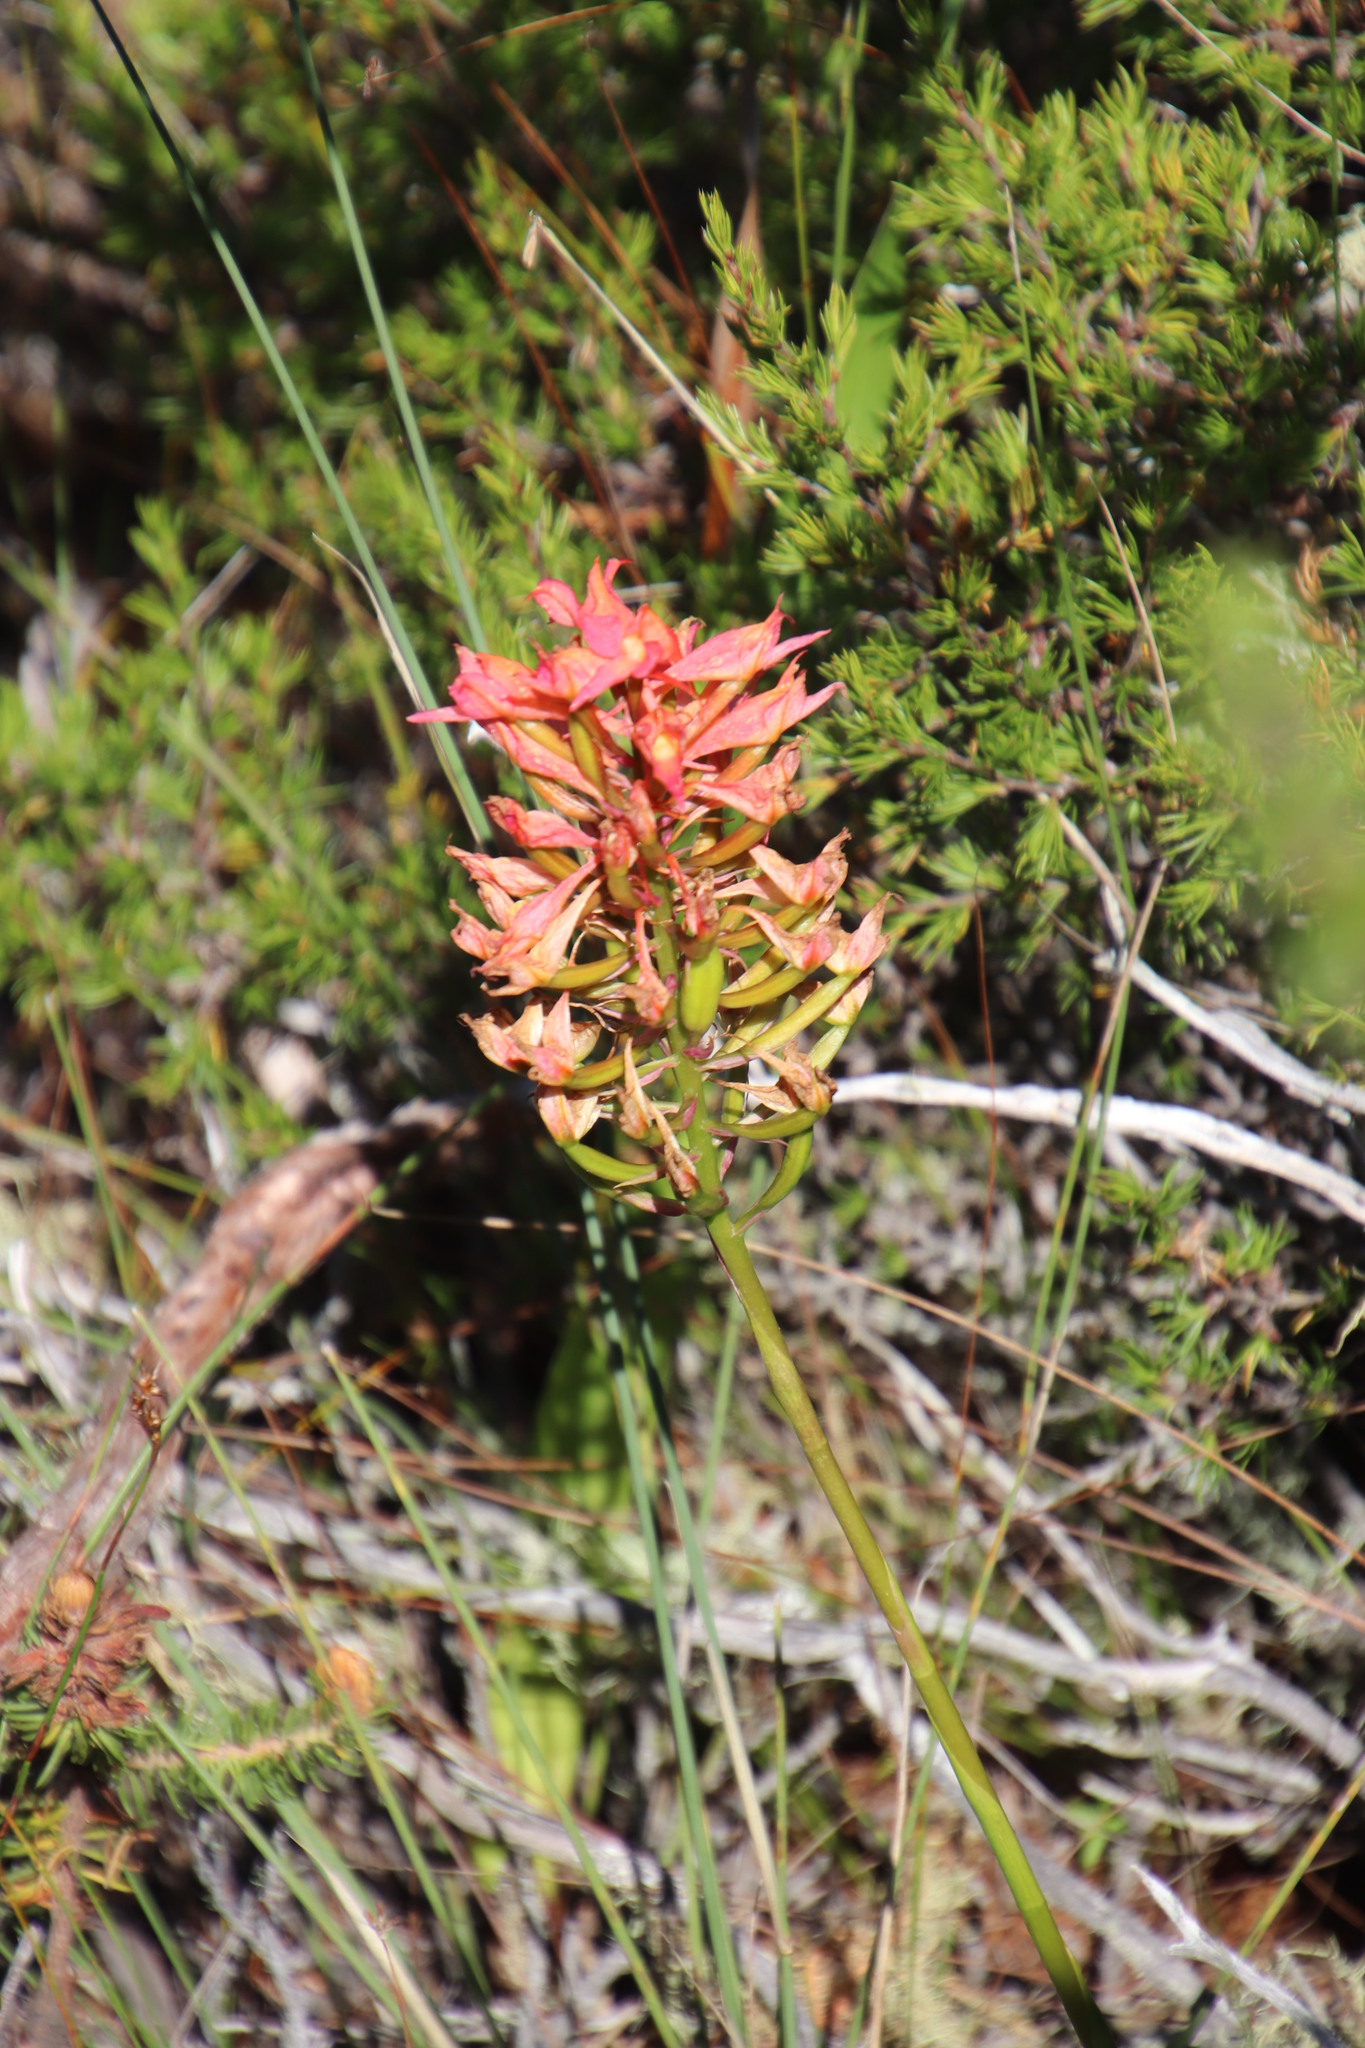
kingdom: Plantae
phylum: Tracheophyta
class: Liliopsida
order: Asparagales
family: Orchidaceae
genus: Disa
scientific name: Disa ferruginea
